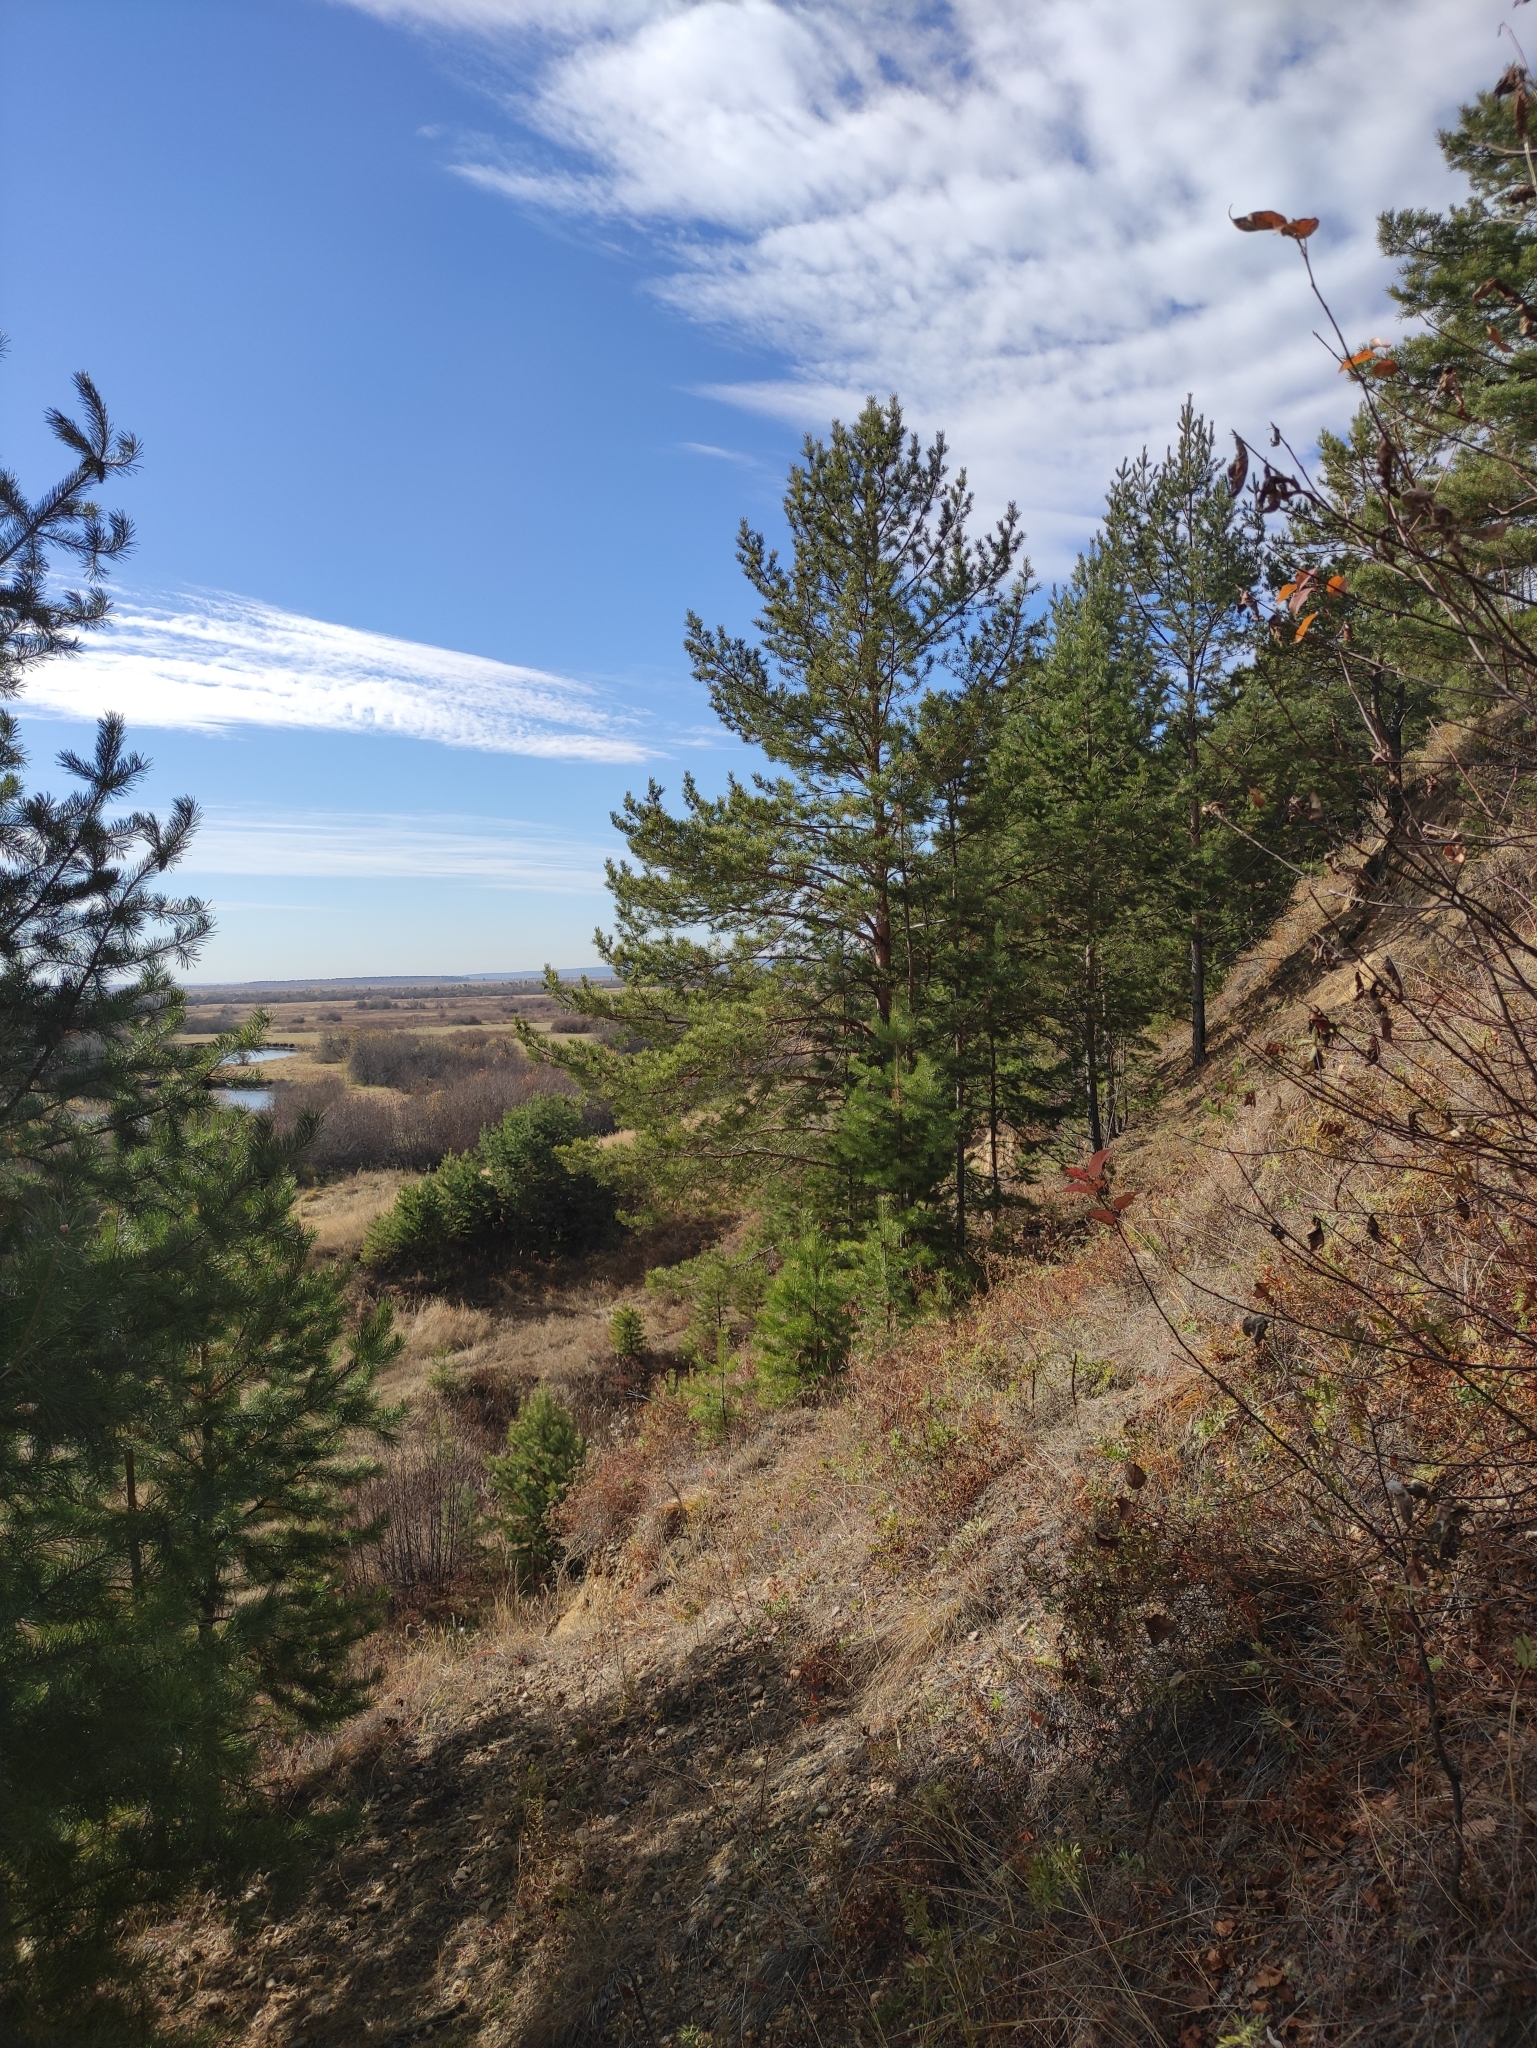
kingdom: Plantae
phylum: Tracheophyta
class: Pinopsida
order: Pinales
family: Pinaceae
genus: Pinus
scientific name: Pinus sylvestris
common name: Scots pine
